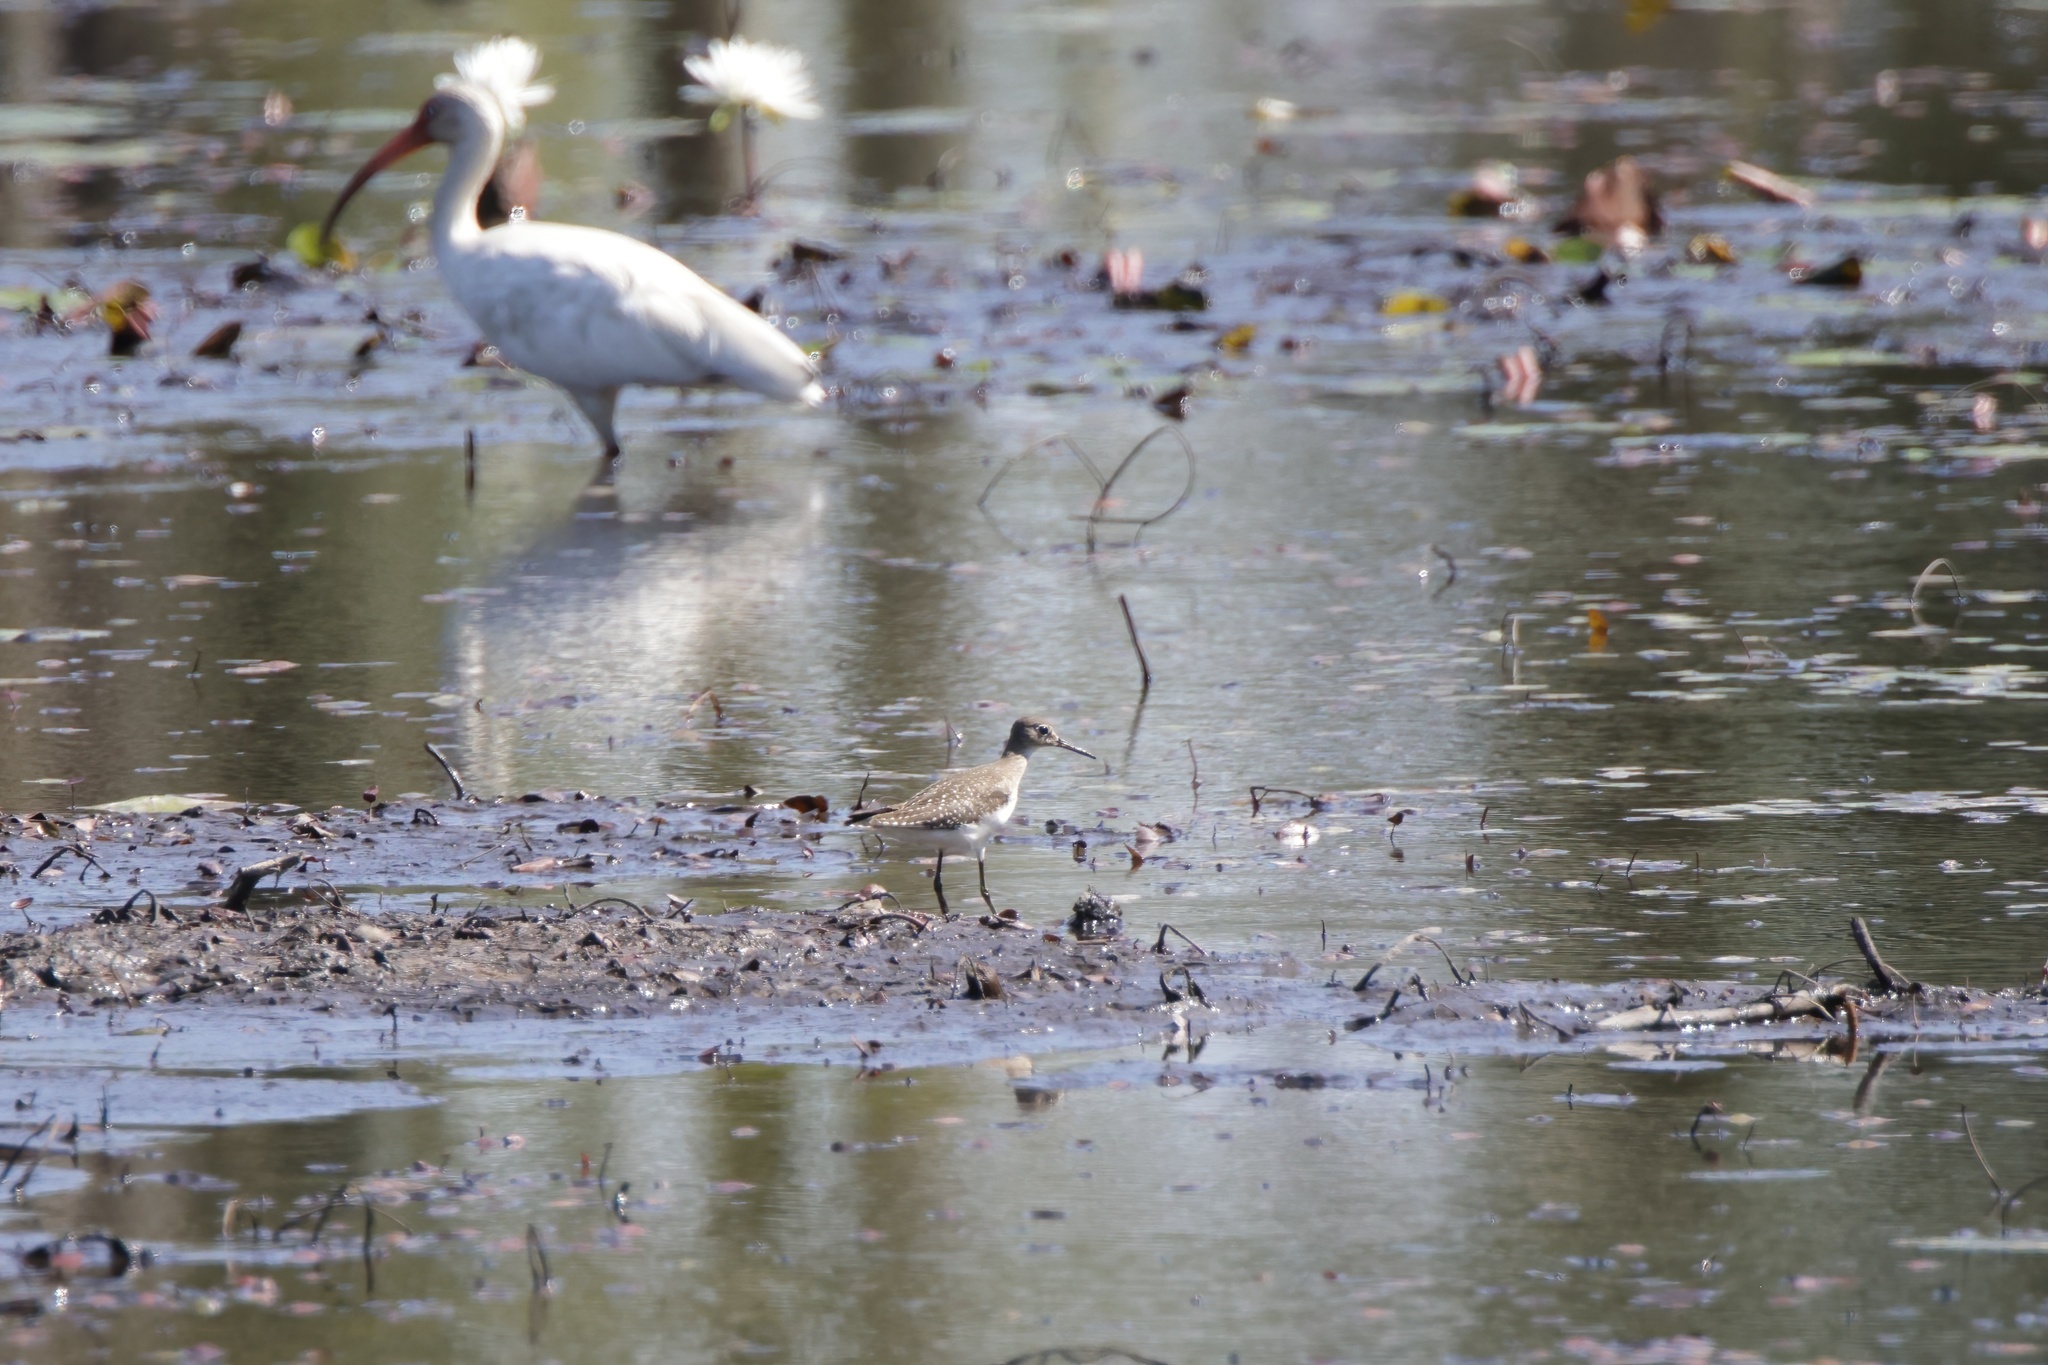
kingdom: Animalia
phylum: Chordata
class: Aves
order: Charadriiformes
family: Scolopacidae
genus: Tringa
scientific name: Tringa solitaria
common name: Solitary sandpiper
